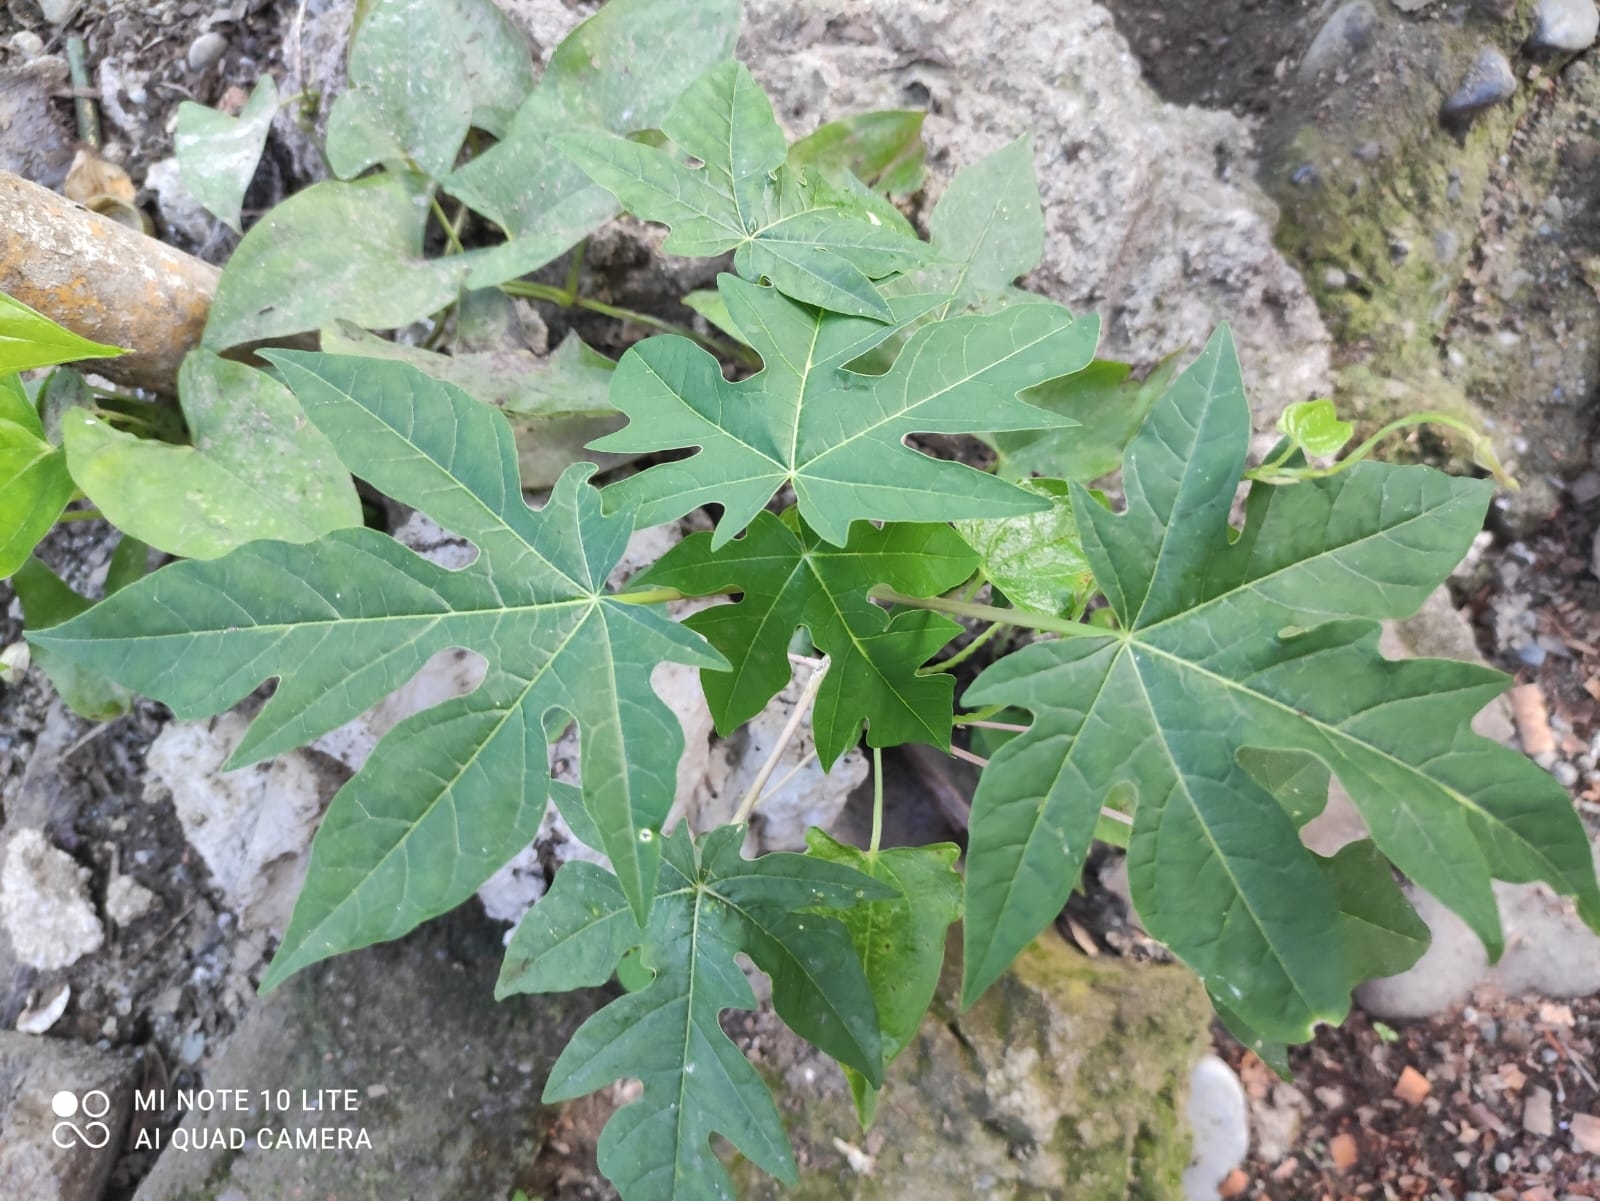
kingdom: Plantae
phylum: Tracheophyta
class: Magnoliopsida
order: Brassicales
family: Caricaceae
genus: Carica
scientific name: Carica papaya
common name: Papaya
